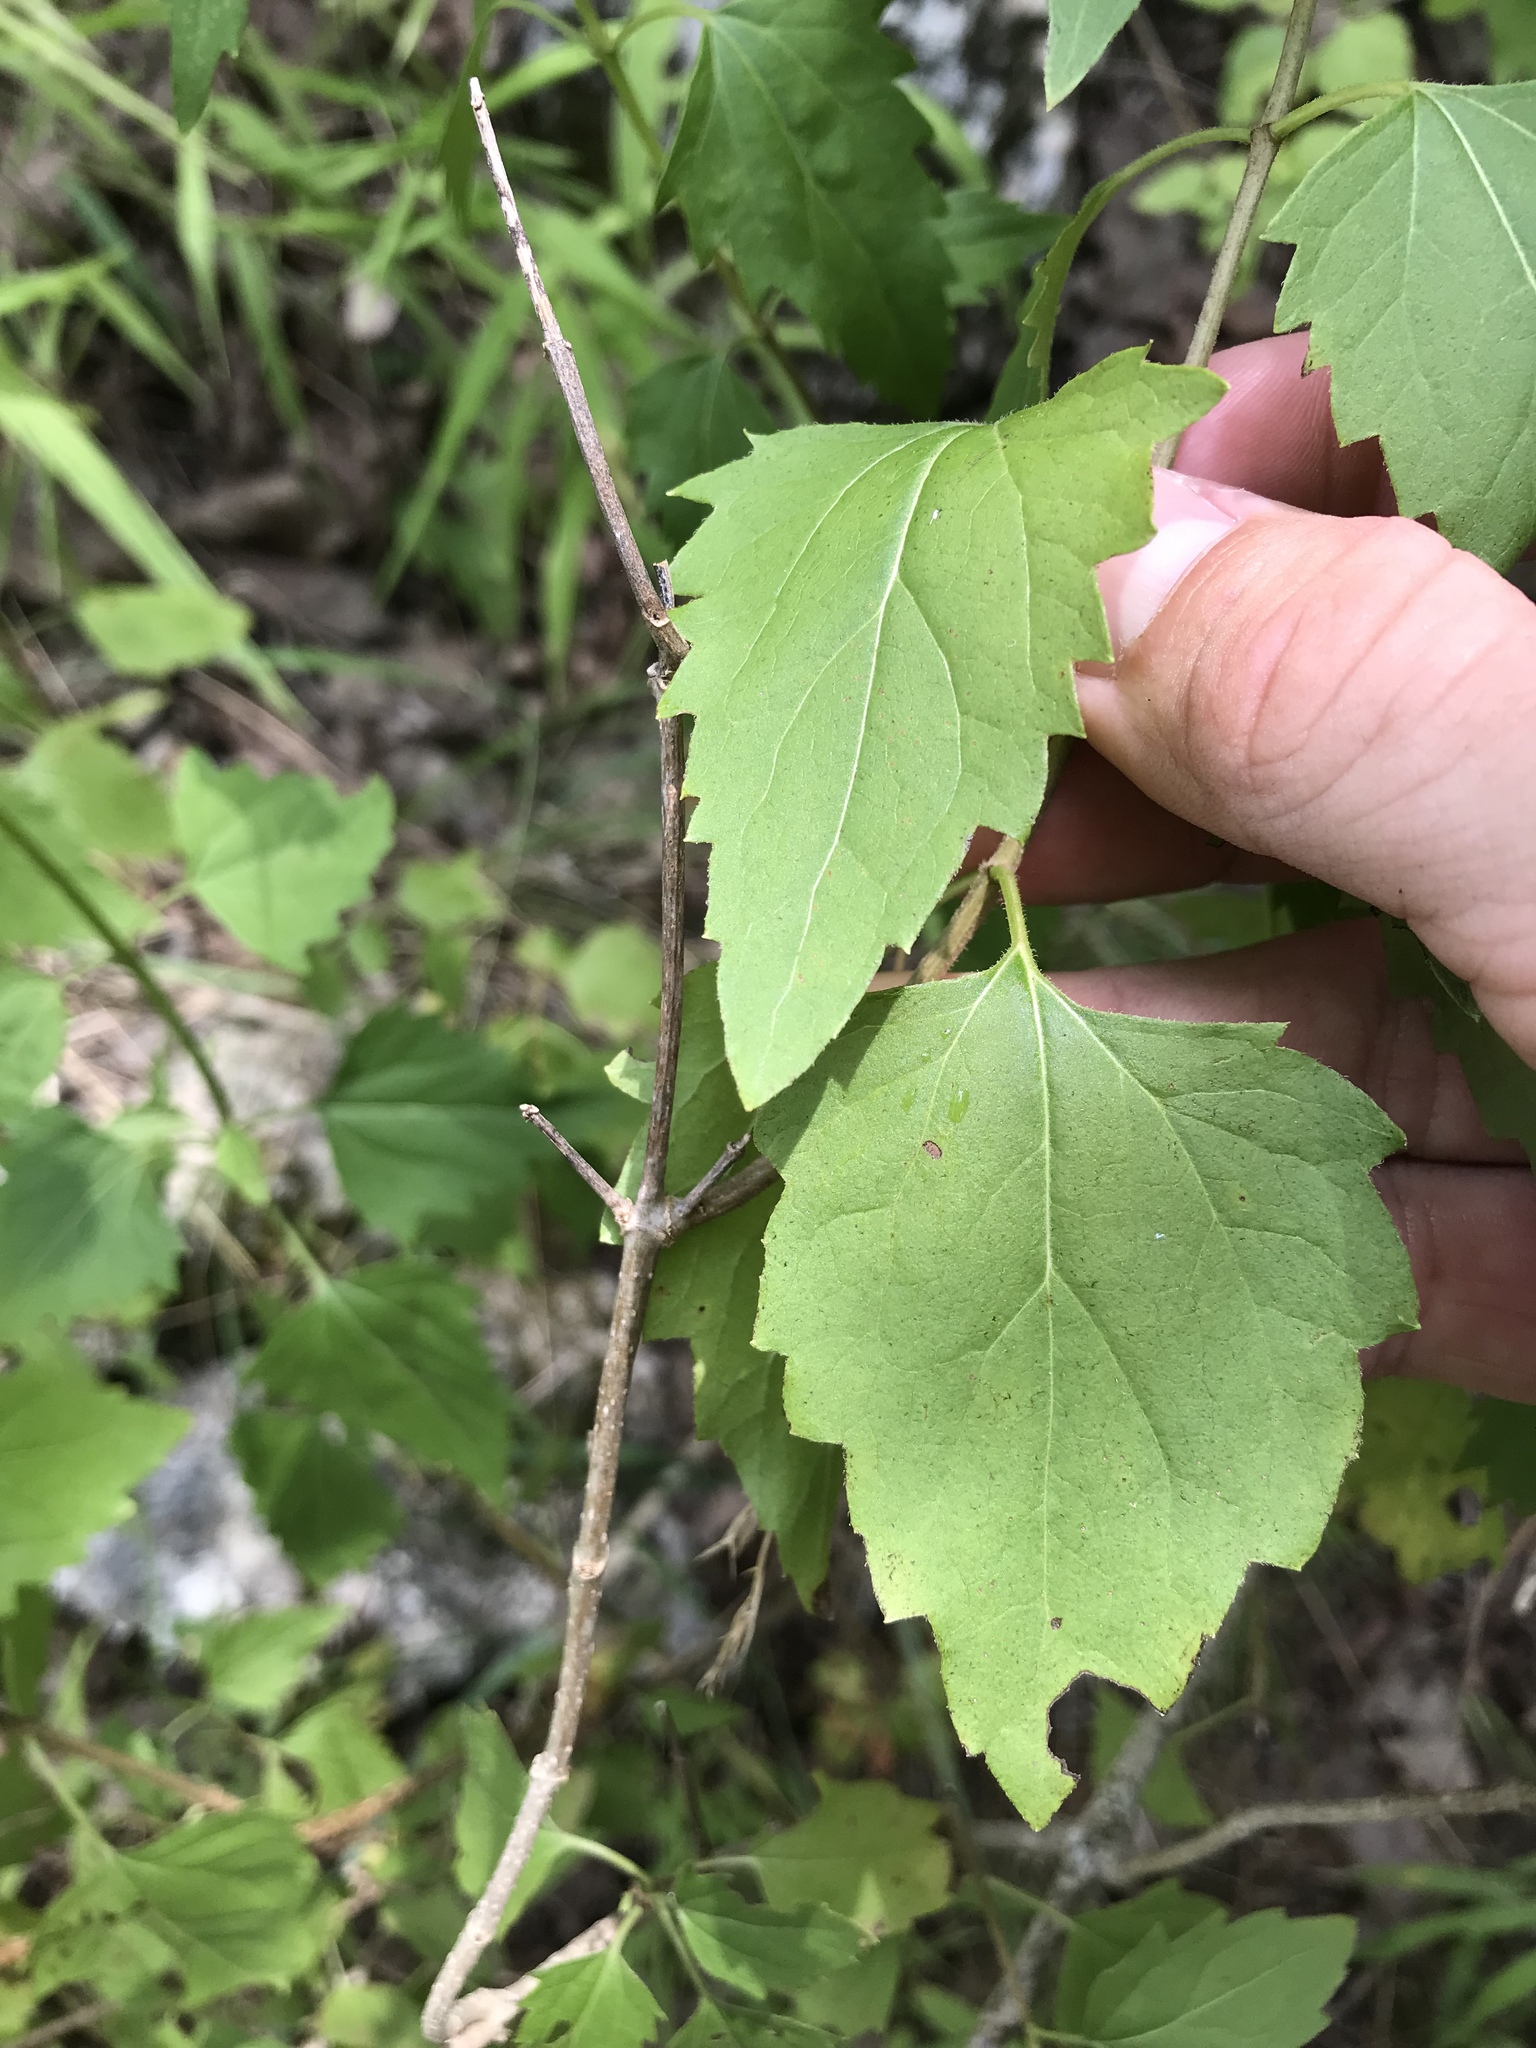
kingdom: Plantae
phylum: Tracheophyta
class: Magnoliopsida
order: Asterales
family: Asteraceae
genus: Ageratina
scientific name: Ageratina havanensis
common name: Havana snakeroot
